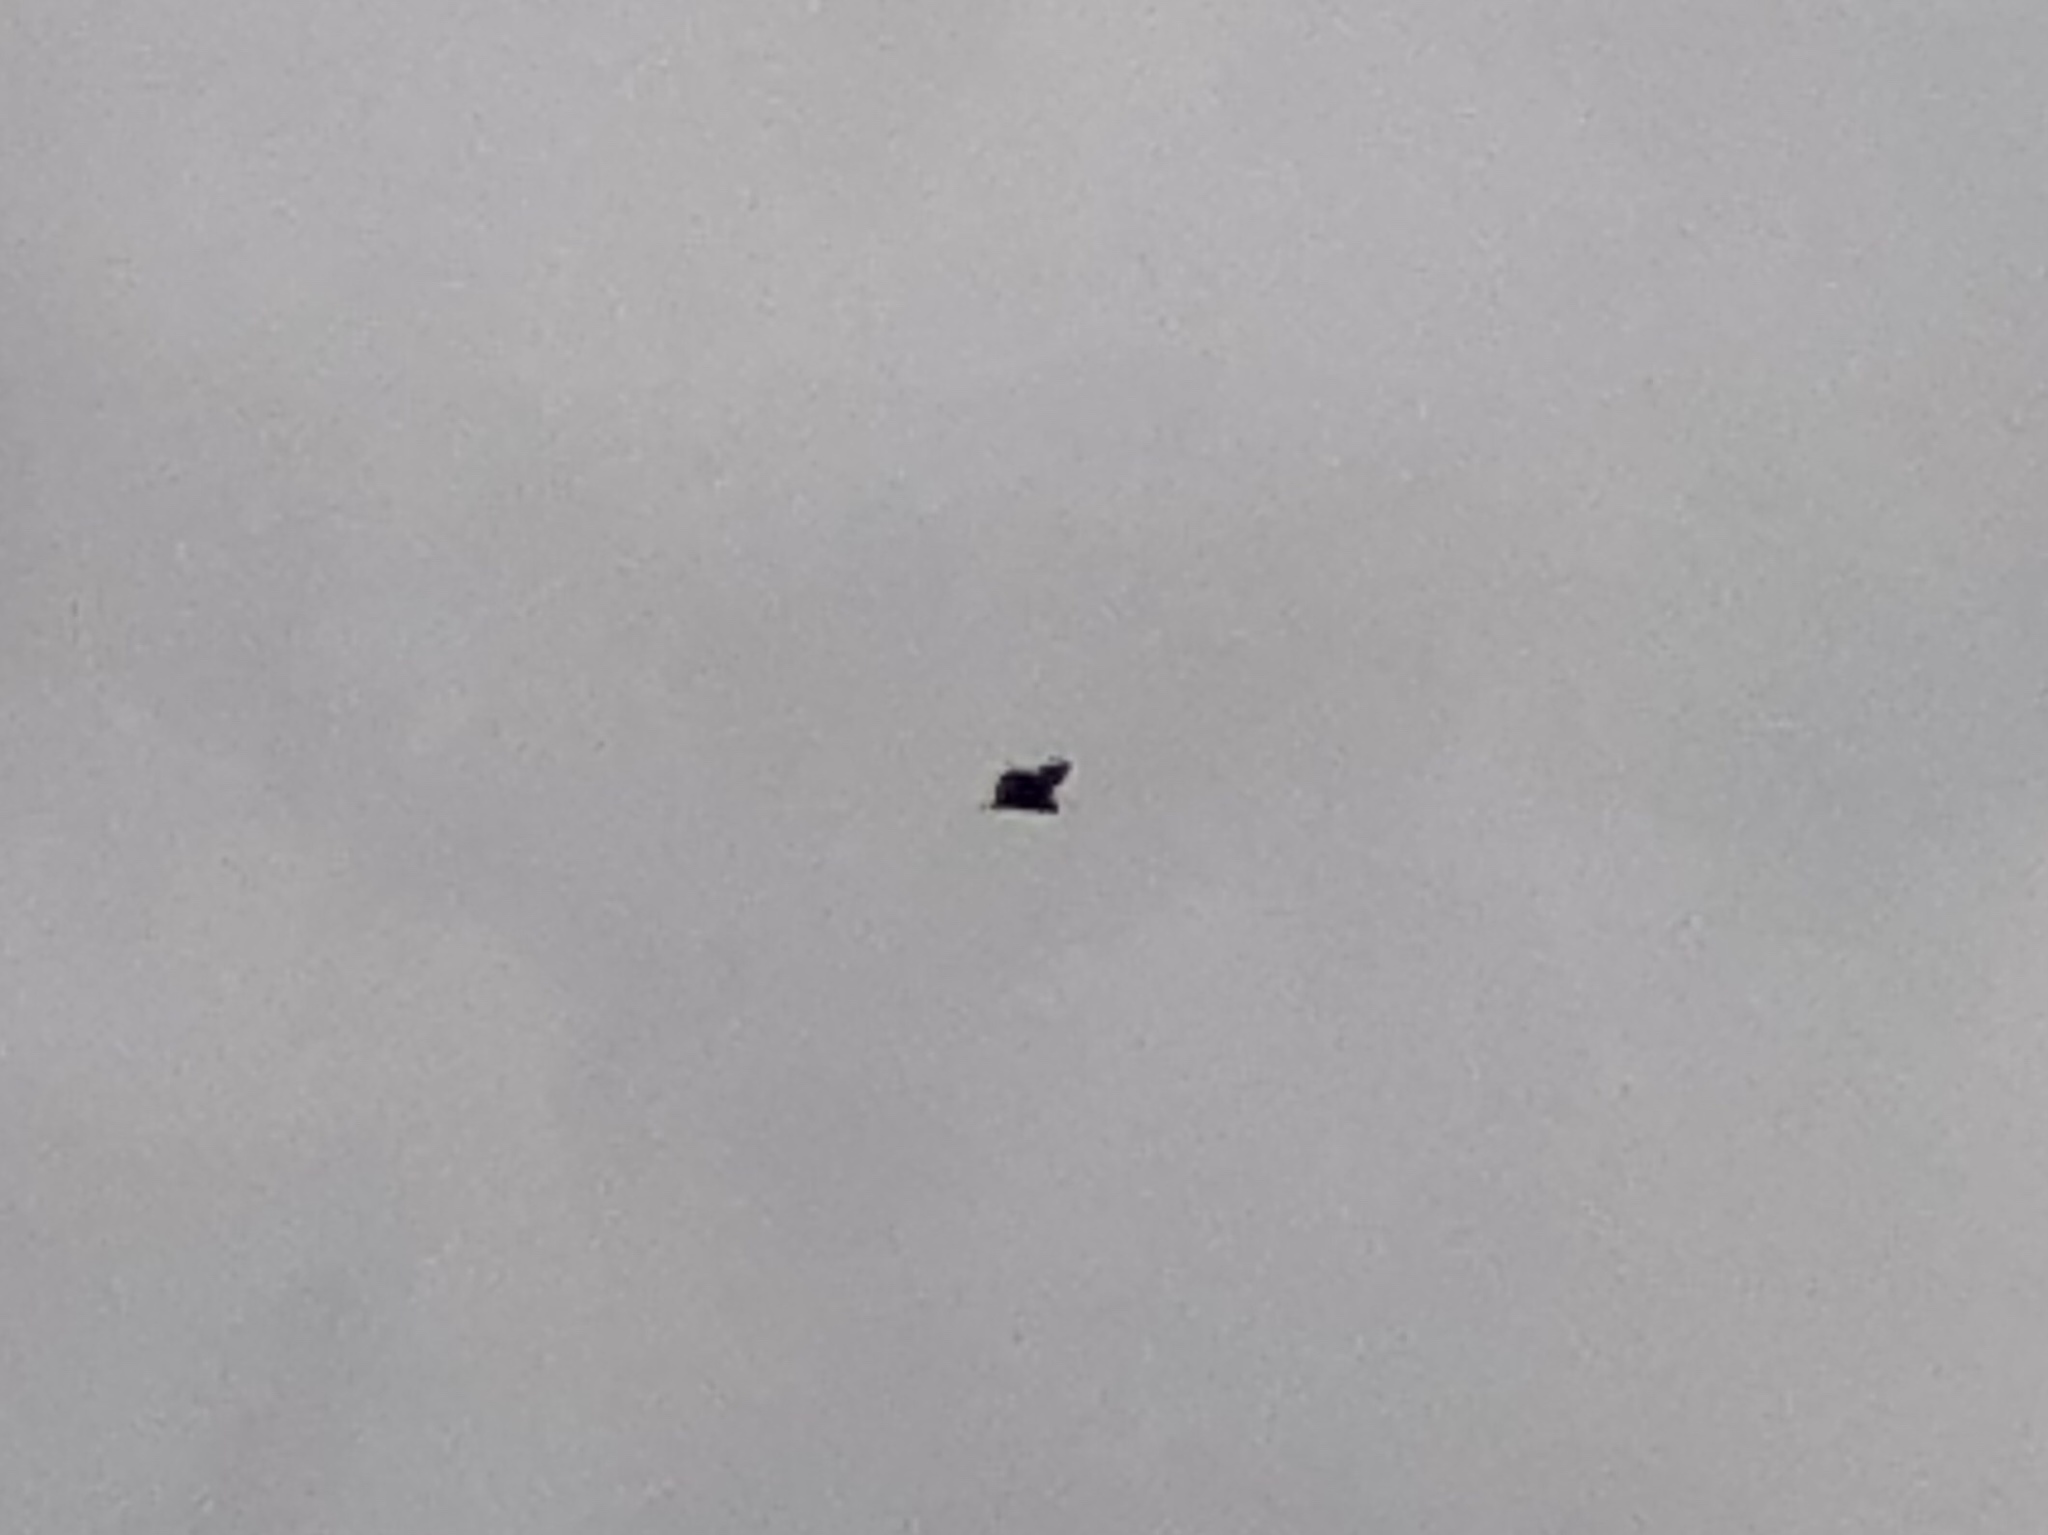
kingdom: Animalia
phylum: Chordata
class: Aves
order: Accipitriformes
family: Cathartidae
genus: Cathartes
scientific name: Cathartes aura
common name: Turkey vulture
